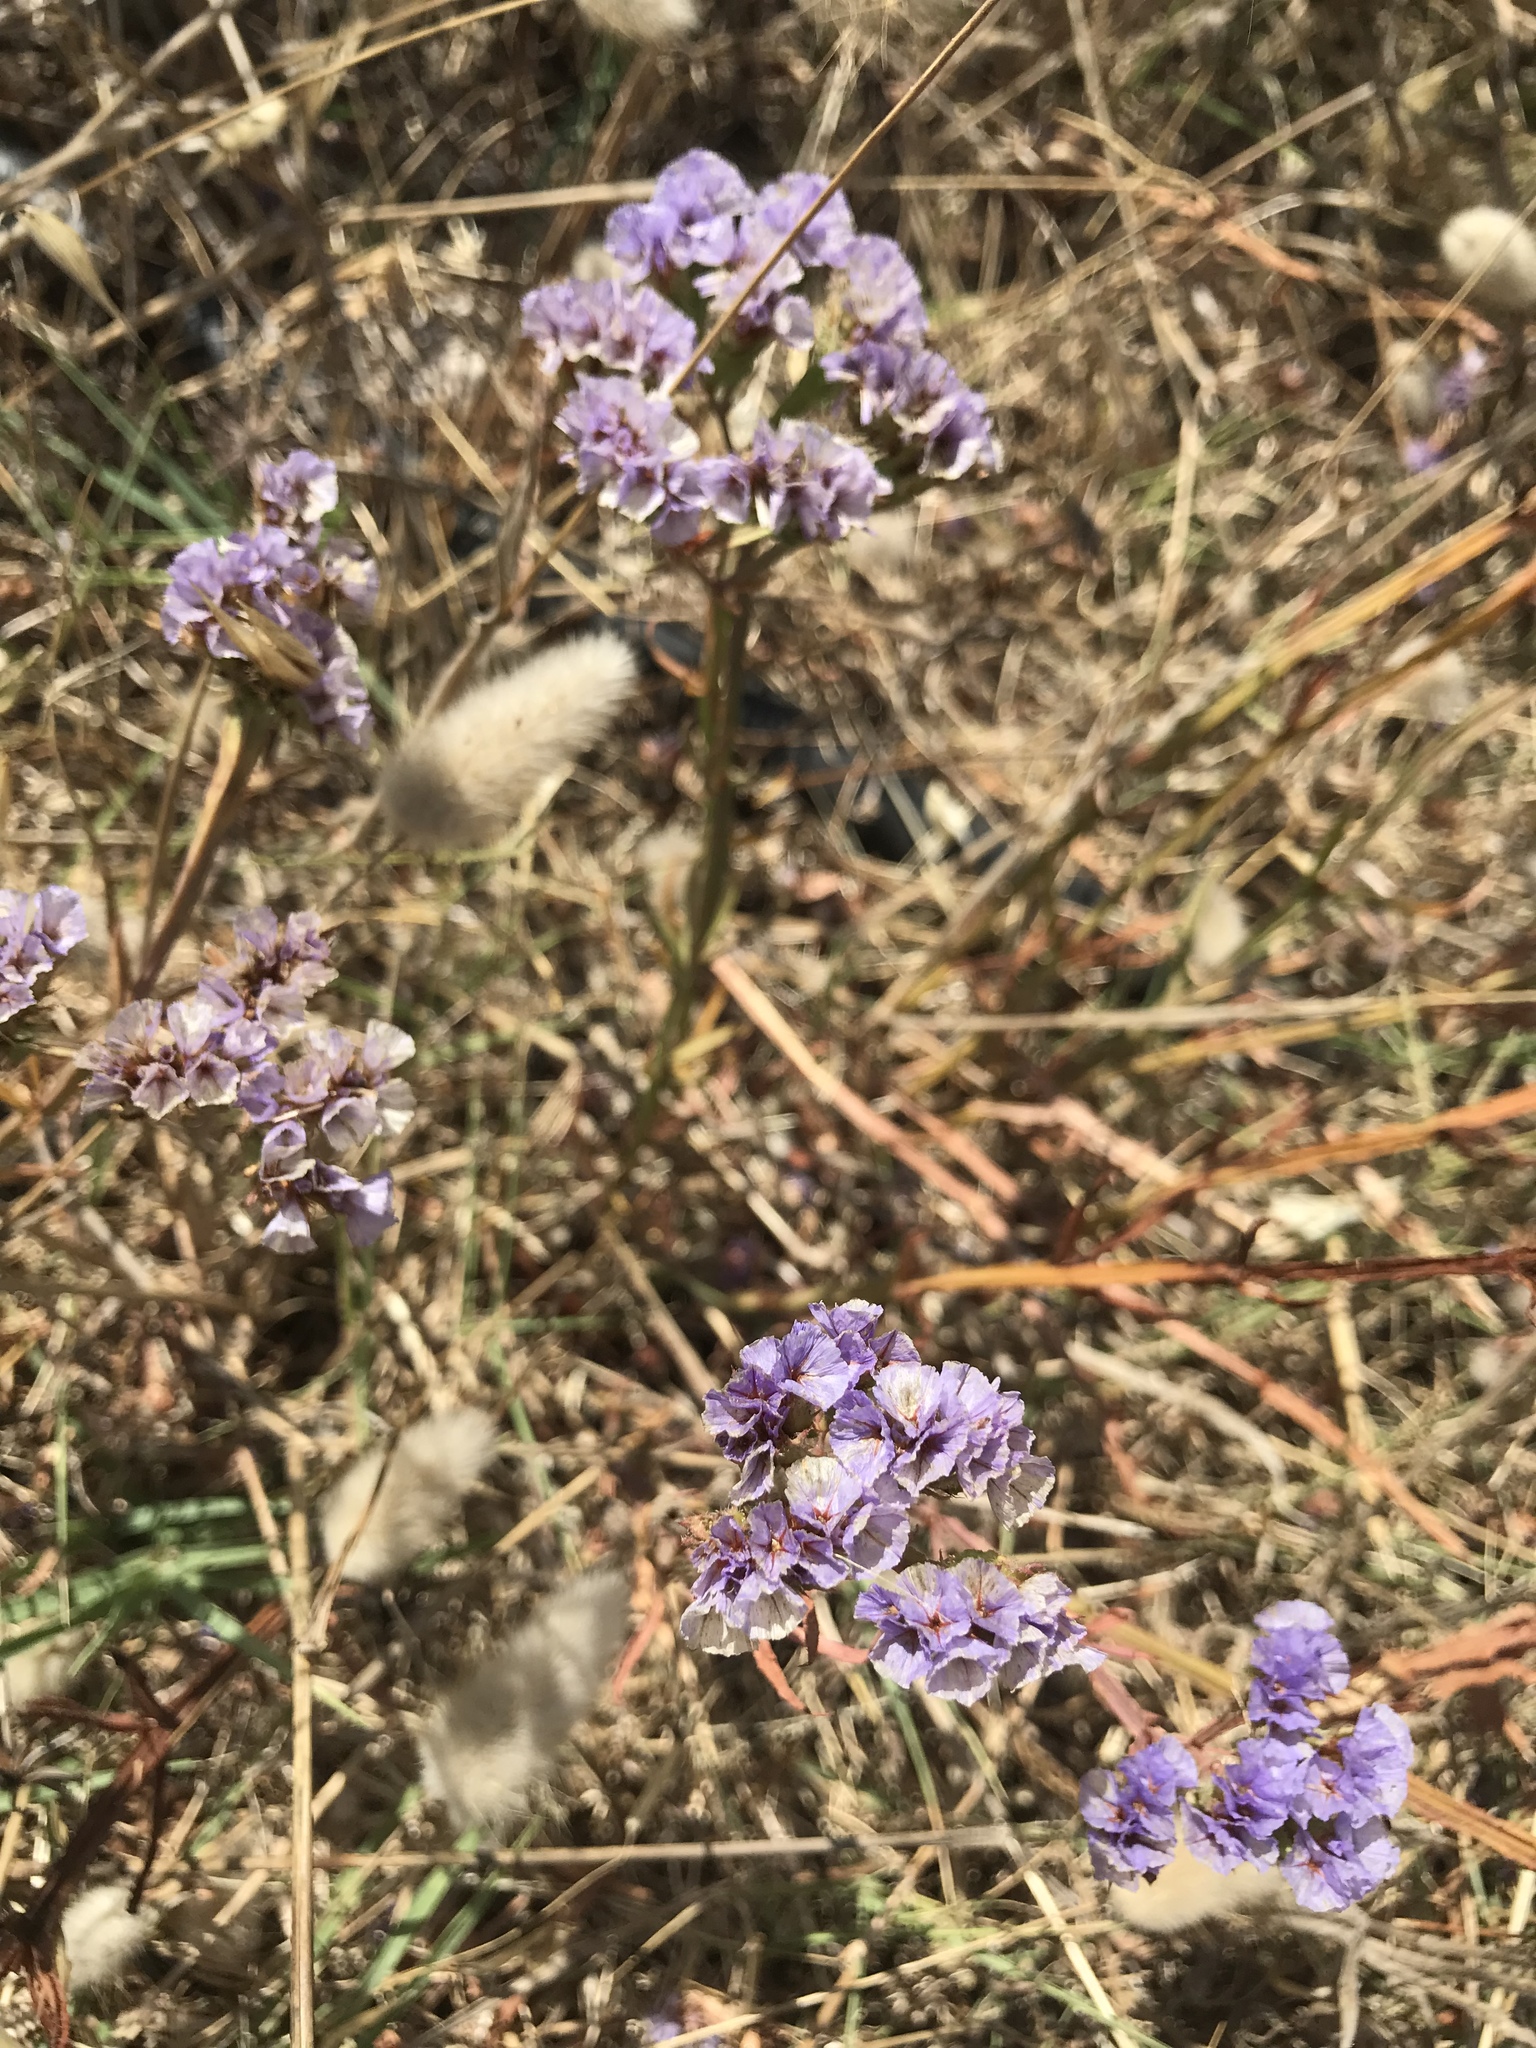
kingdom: Plantae
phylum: Tracheophyta
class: Magnoliopsida
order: Caryophyllales
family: Plumbaginaceae
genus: Limonium
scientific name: Limonium sinuatum
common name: Statice
